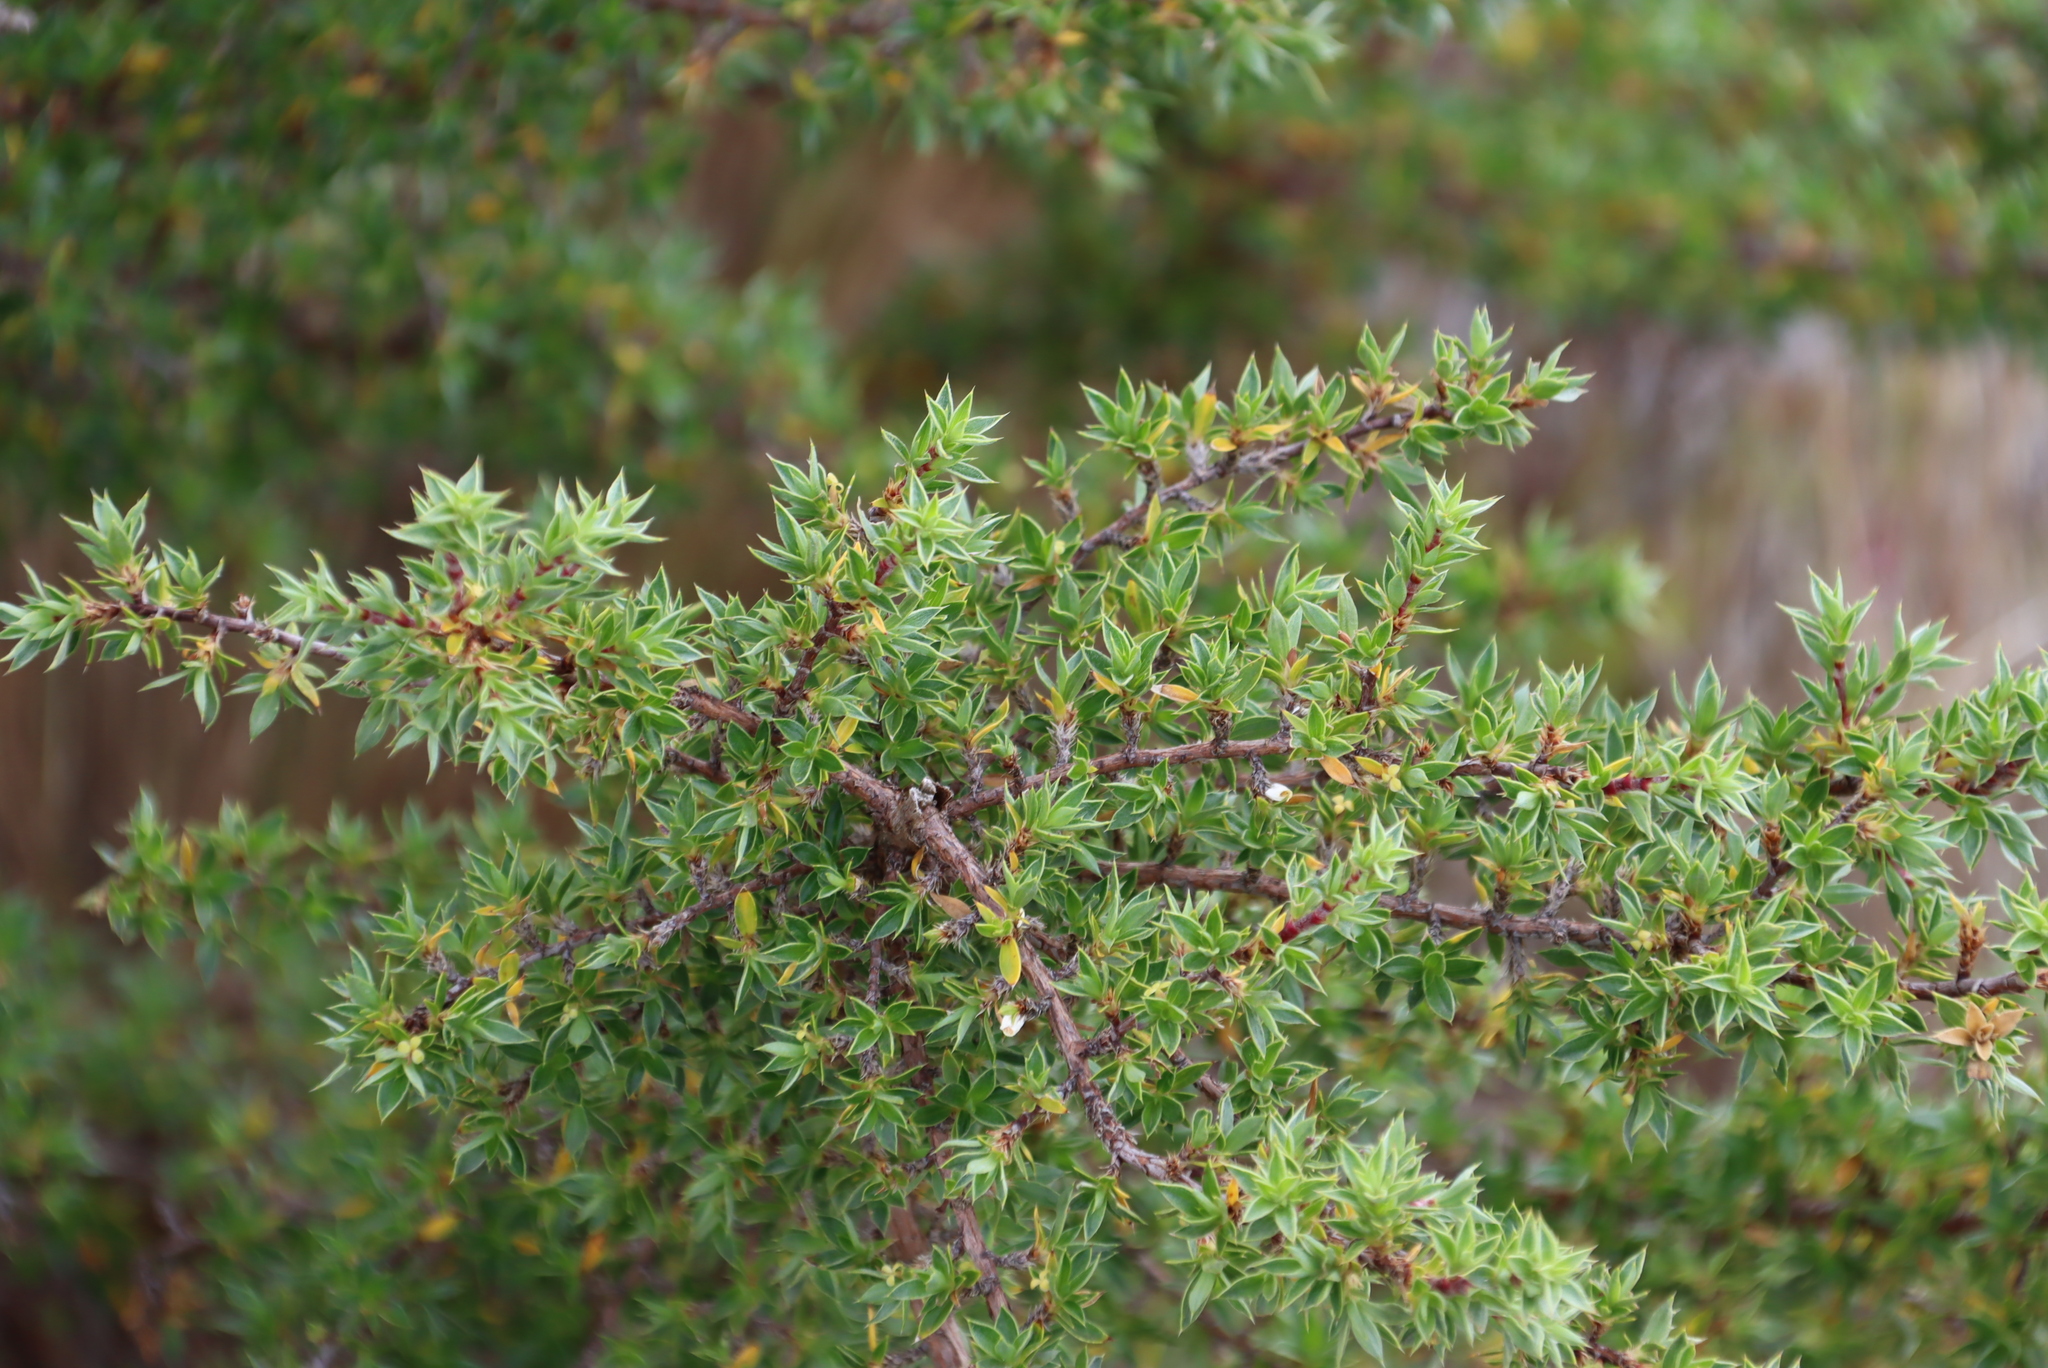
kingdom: Plantae
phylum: Tracheophyta
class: Magnoliopsida
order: Rosales
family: Rosaceae
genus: Cliffortia
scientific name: Cliffortia ruscifolia
